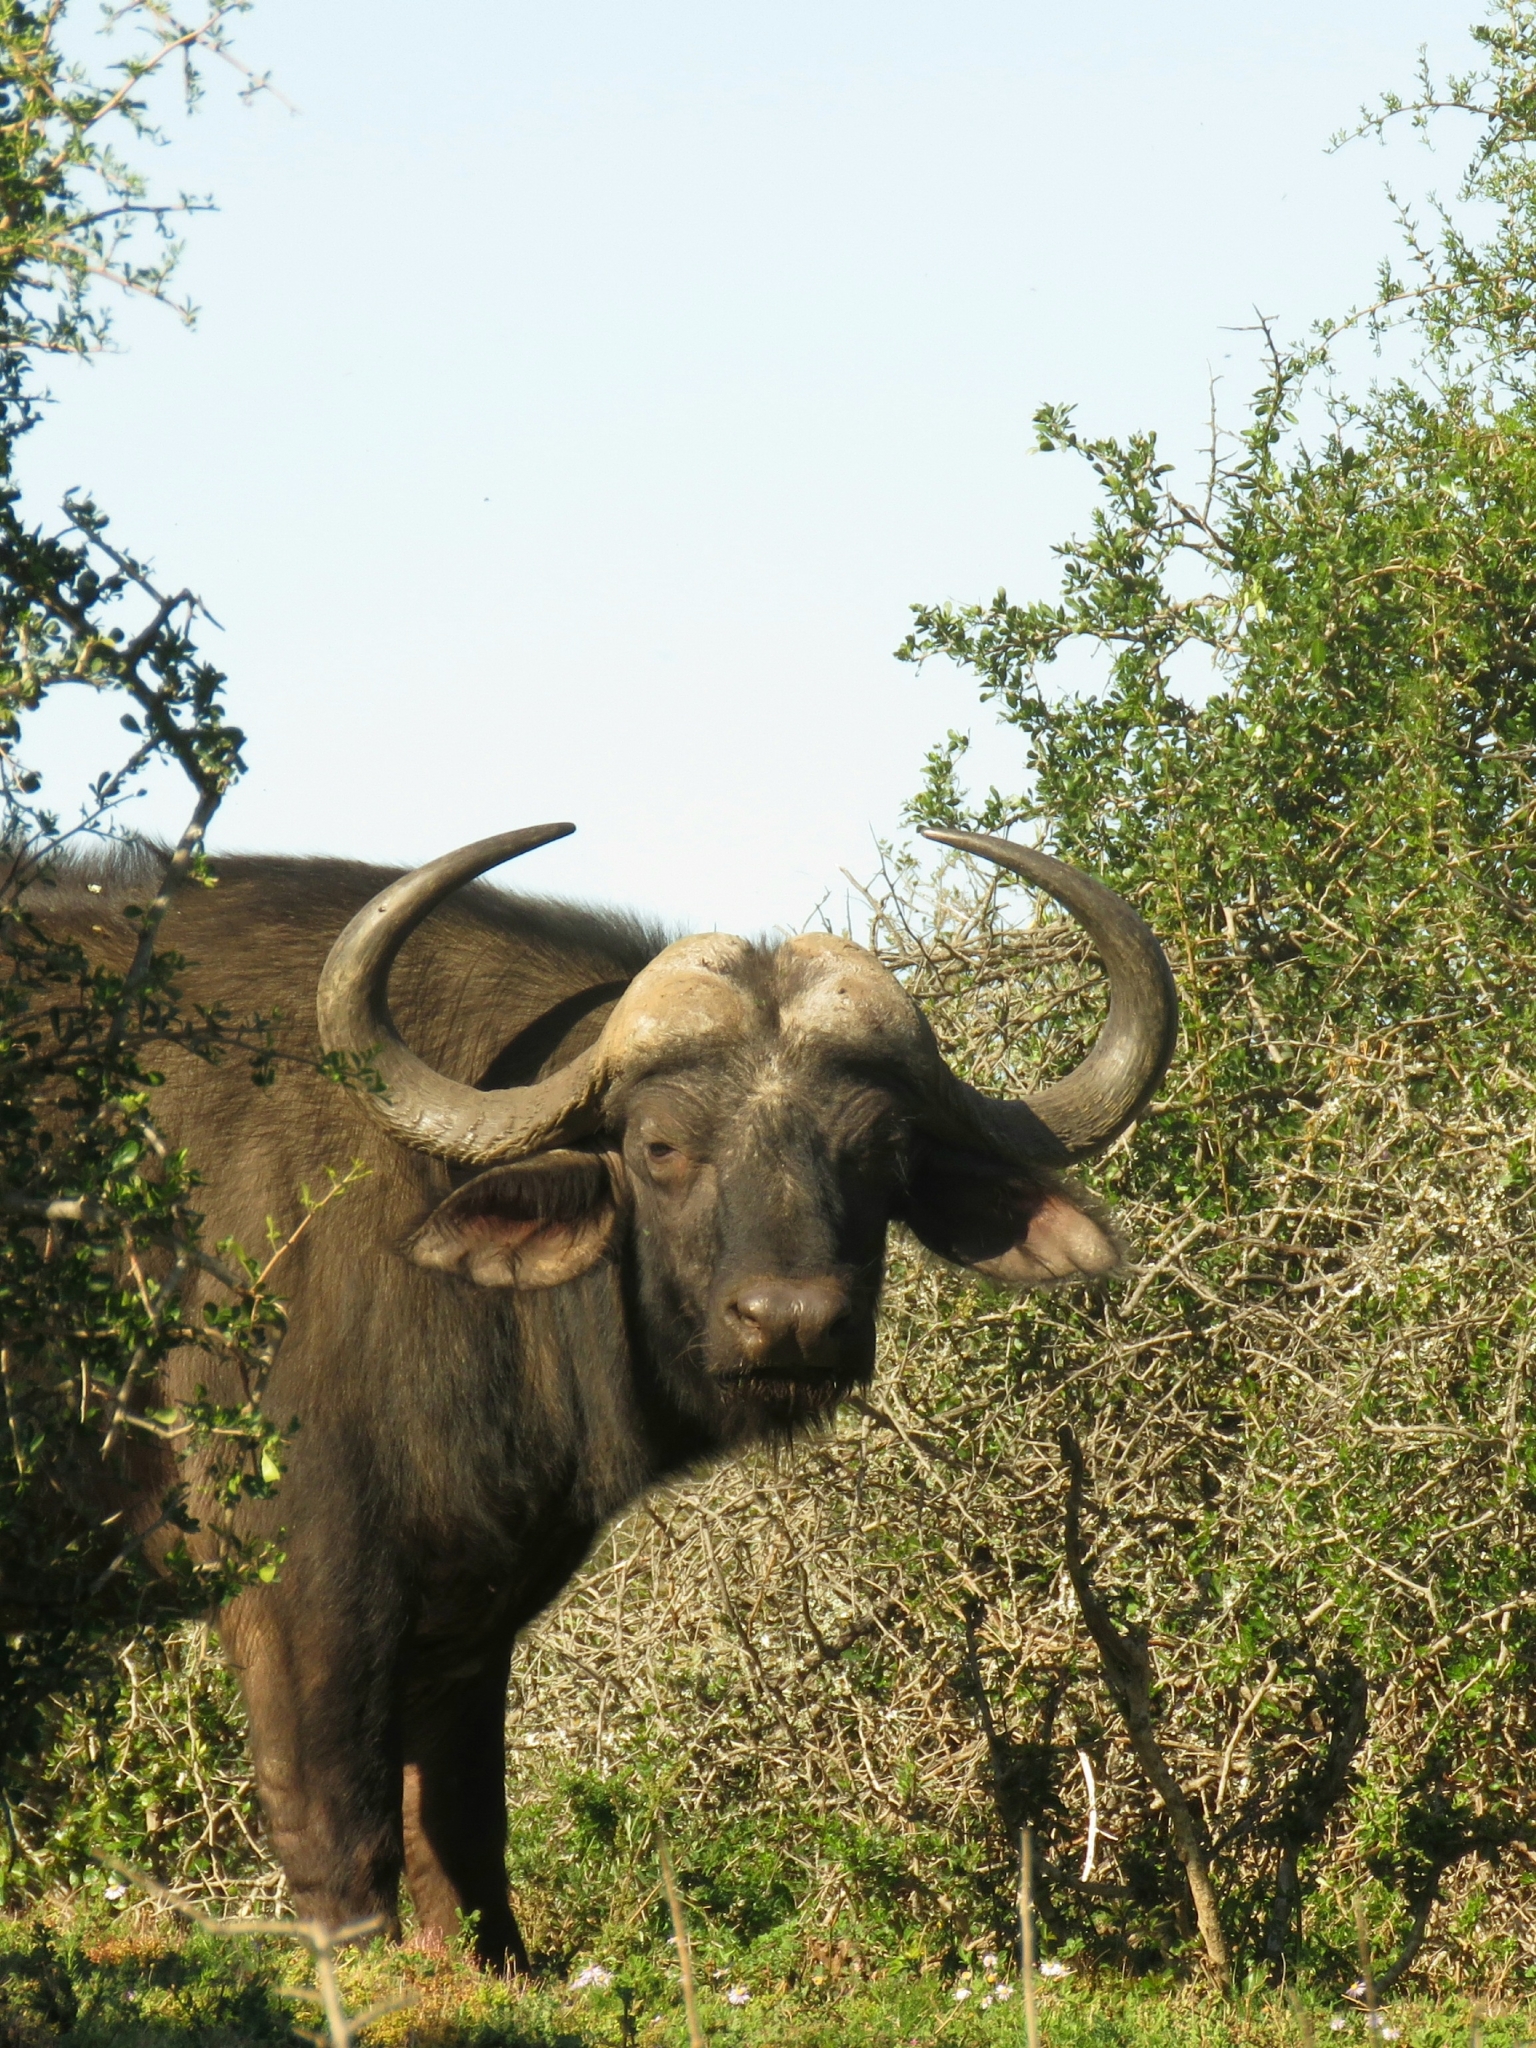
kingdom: Animalia
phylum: Chordata
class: Mammalia
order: Artiodactyla
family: Bovidae
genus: Syncerus
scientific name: Syncerus caffer
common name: African buffalo
